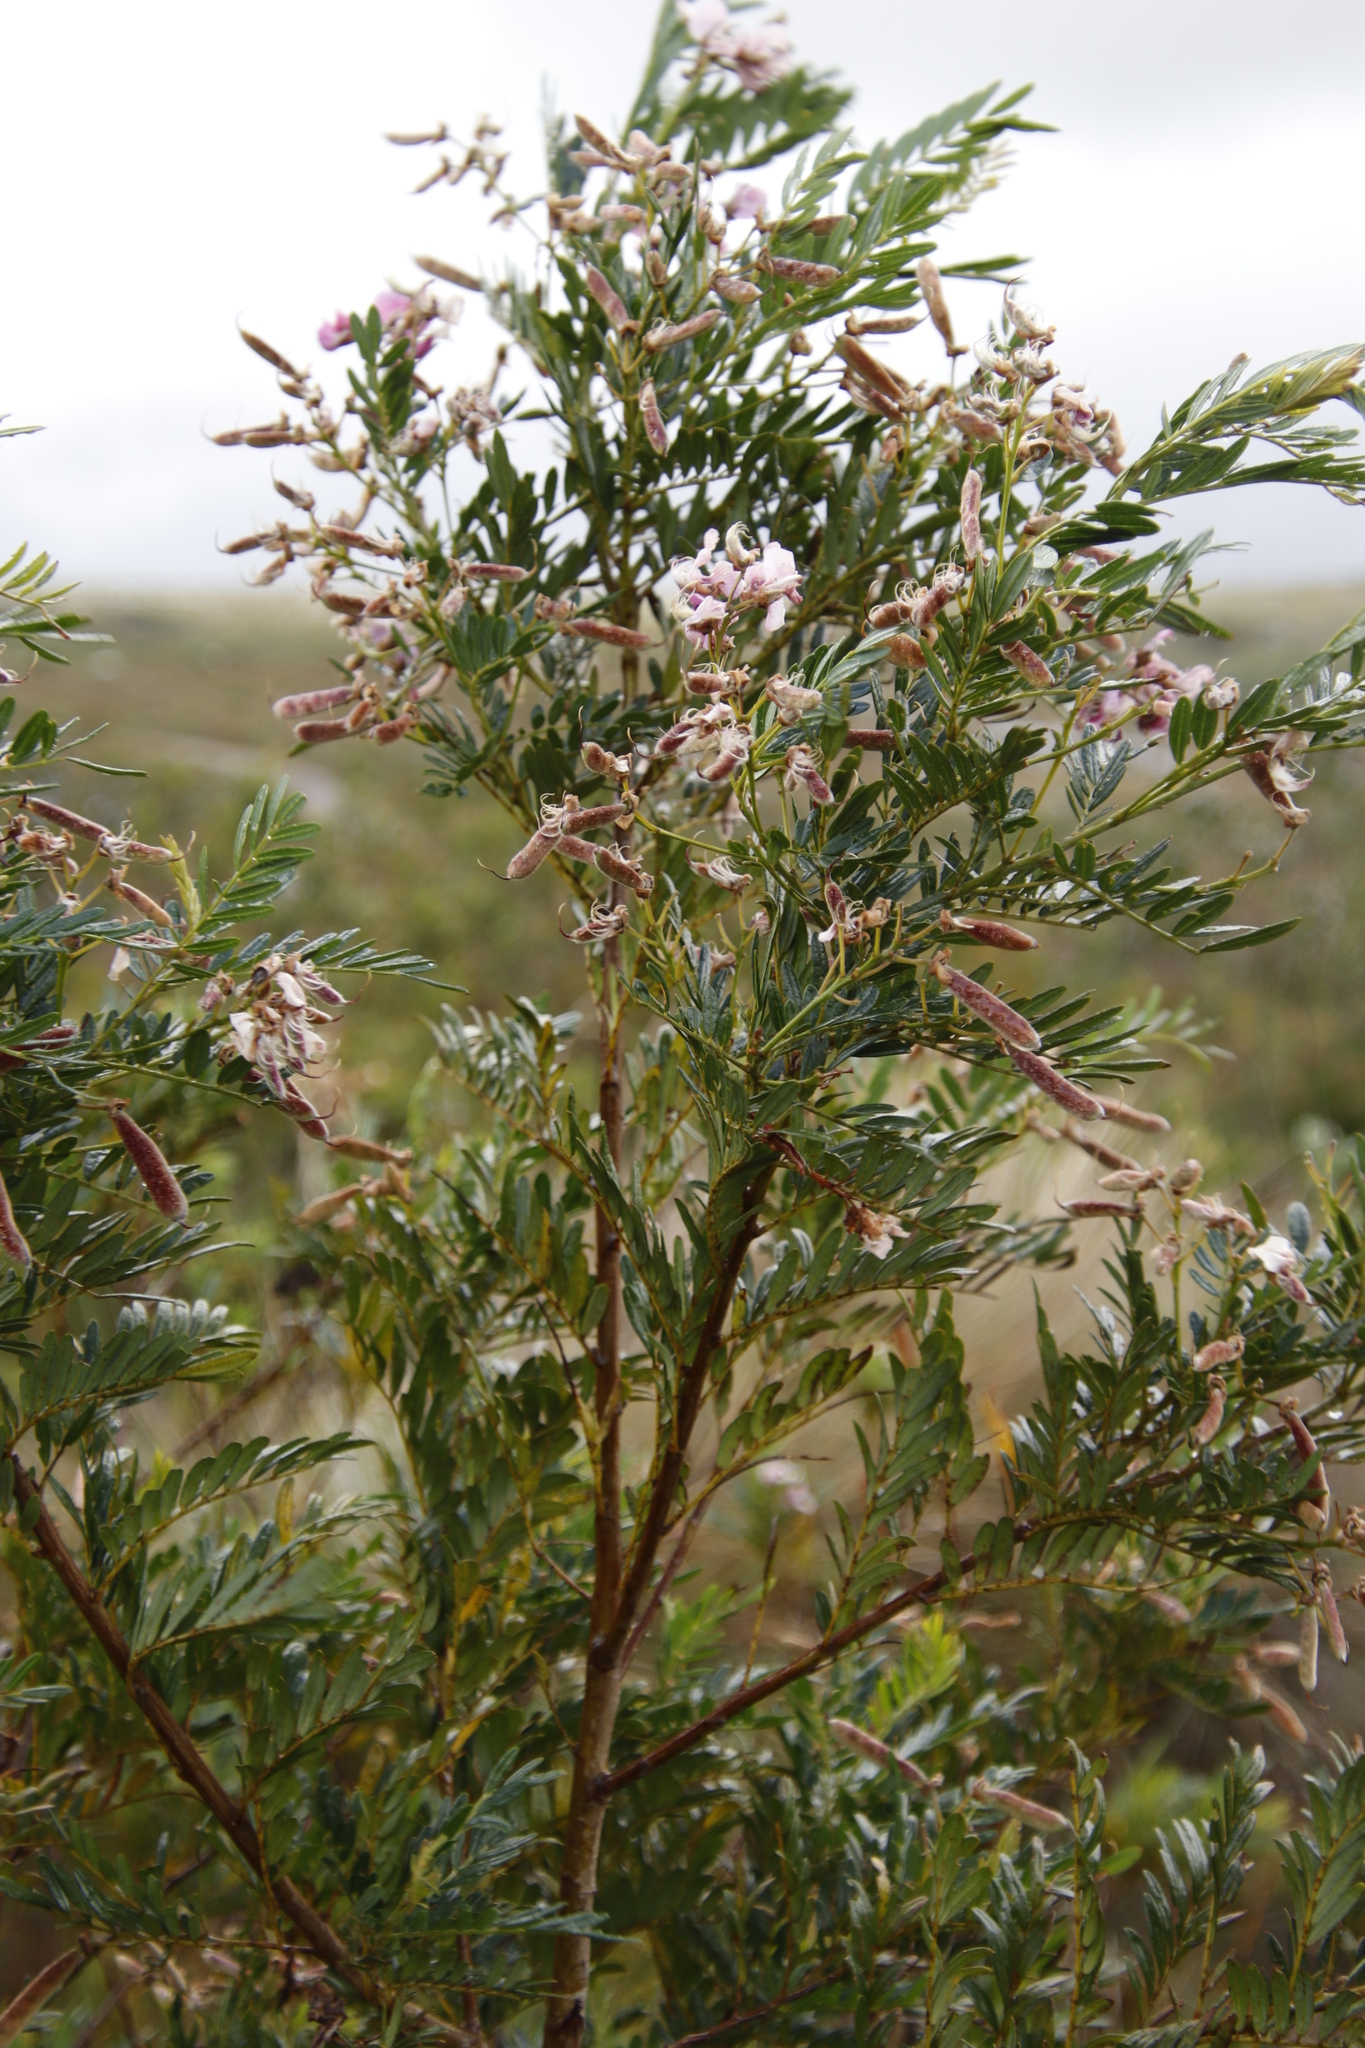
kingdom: Plantae
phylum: Tracheophyta
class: Magnoliopsida
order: Fabales
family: Fabaceae
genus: Virgilia
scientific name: Virgilia oroboides
